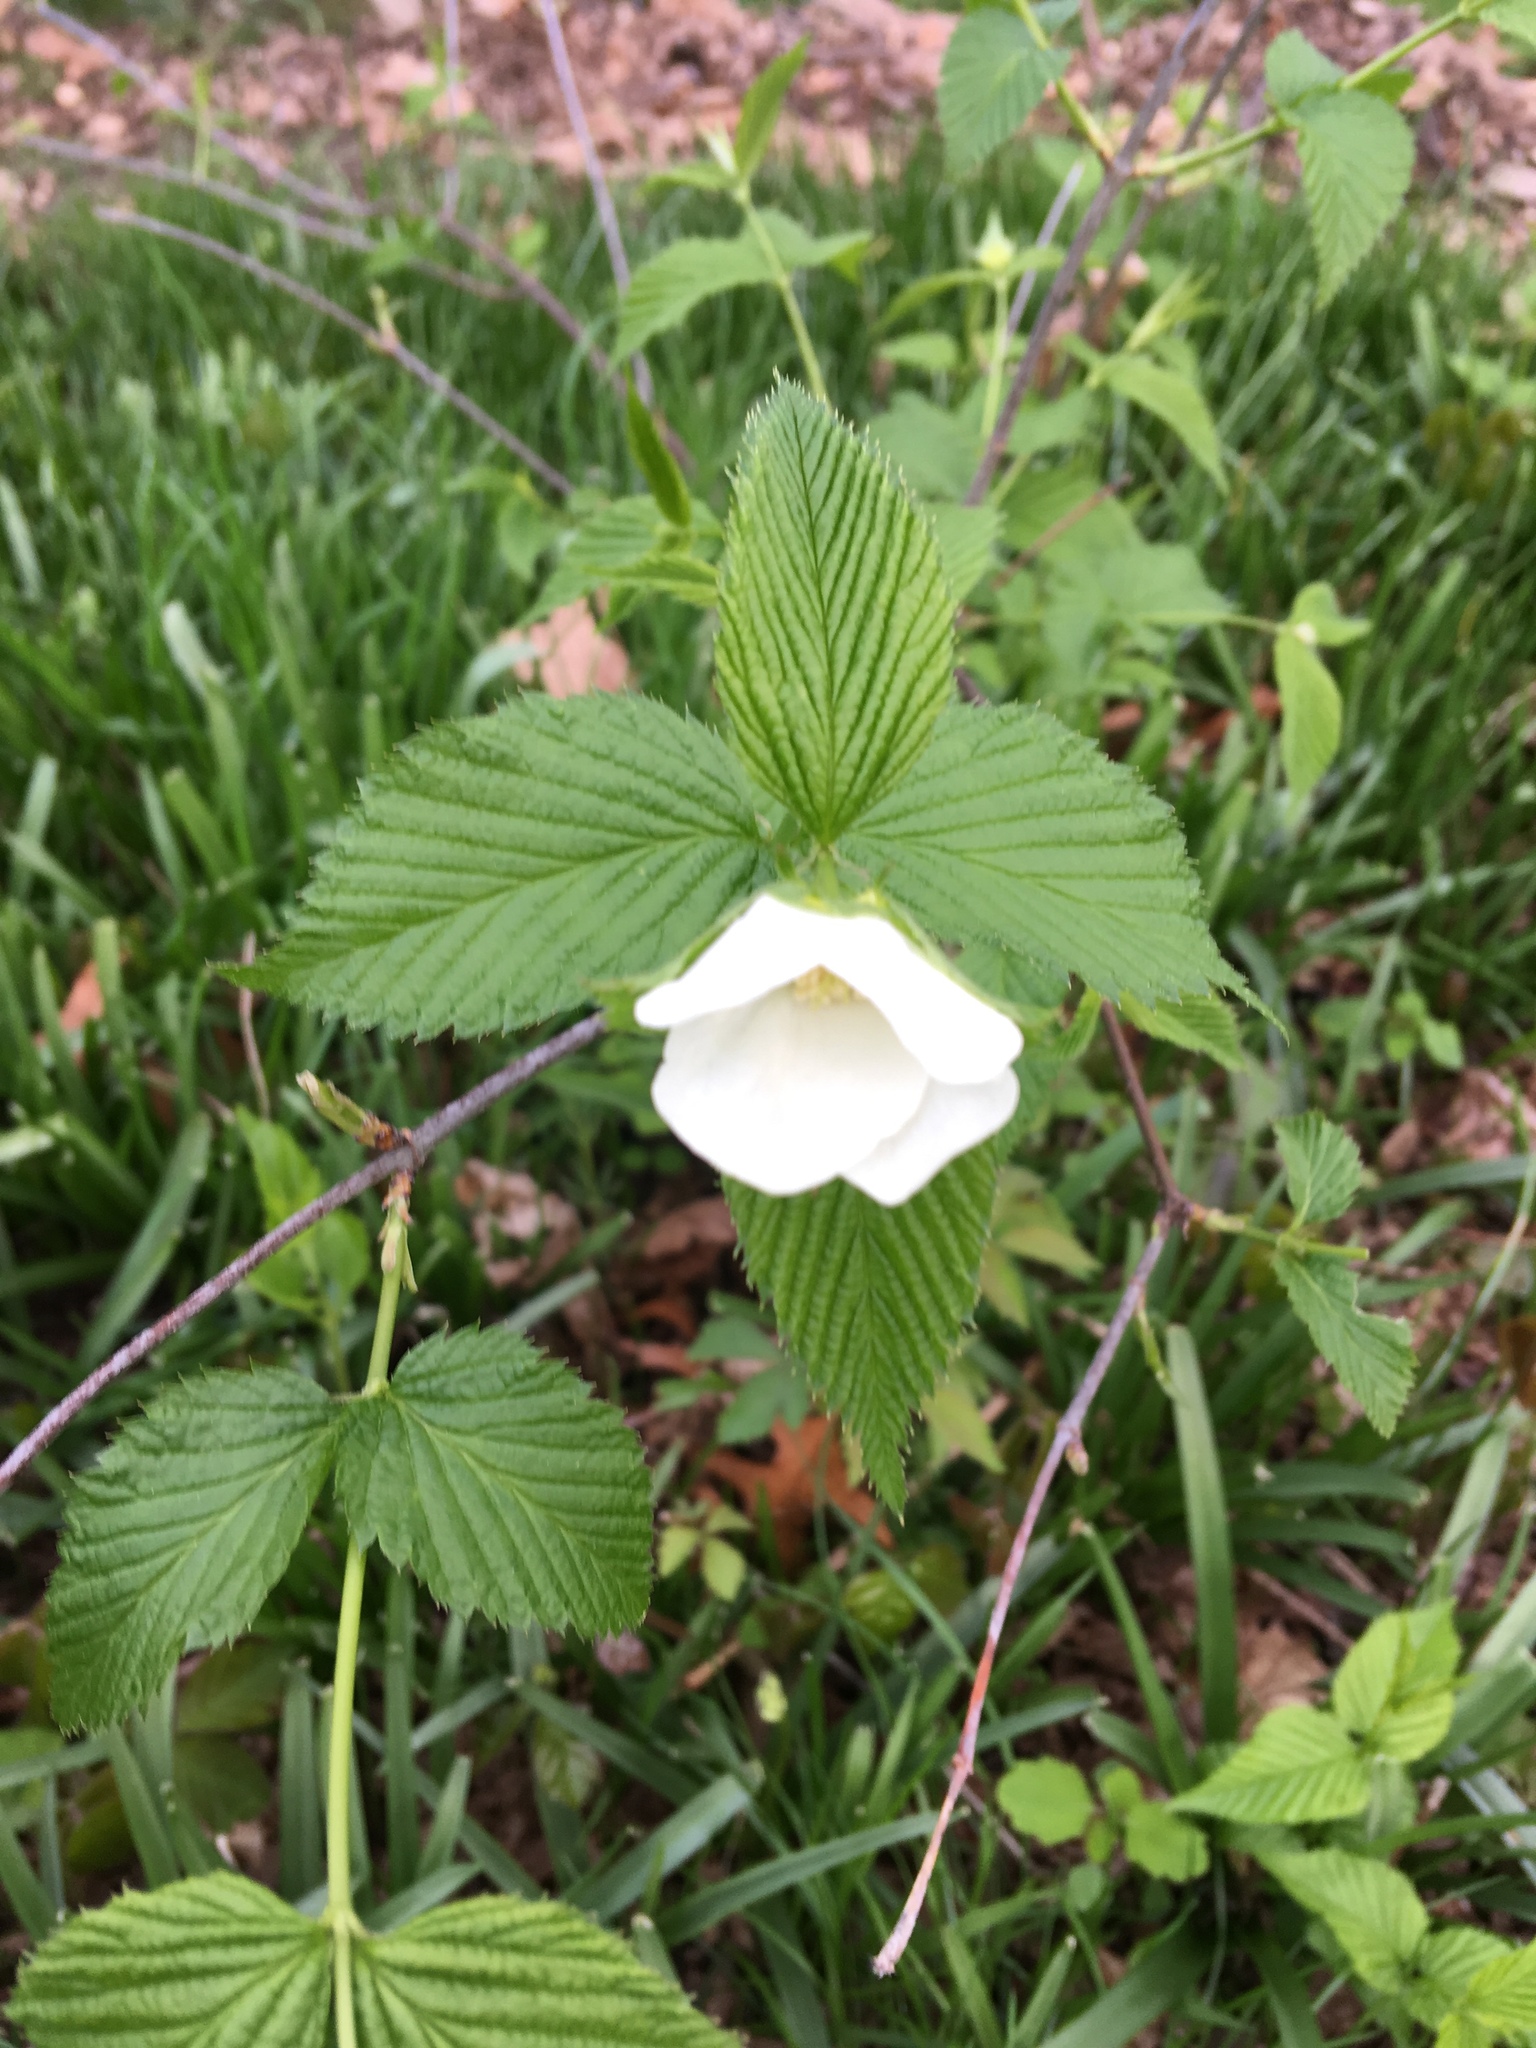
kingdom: Plantae
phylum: Tracheophyta
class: Magnoliopsida
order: Rosales
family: Rosaceae
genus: Rhodotypos
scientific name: Rhodotypos scandens
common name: Jetbead
